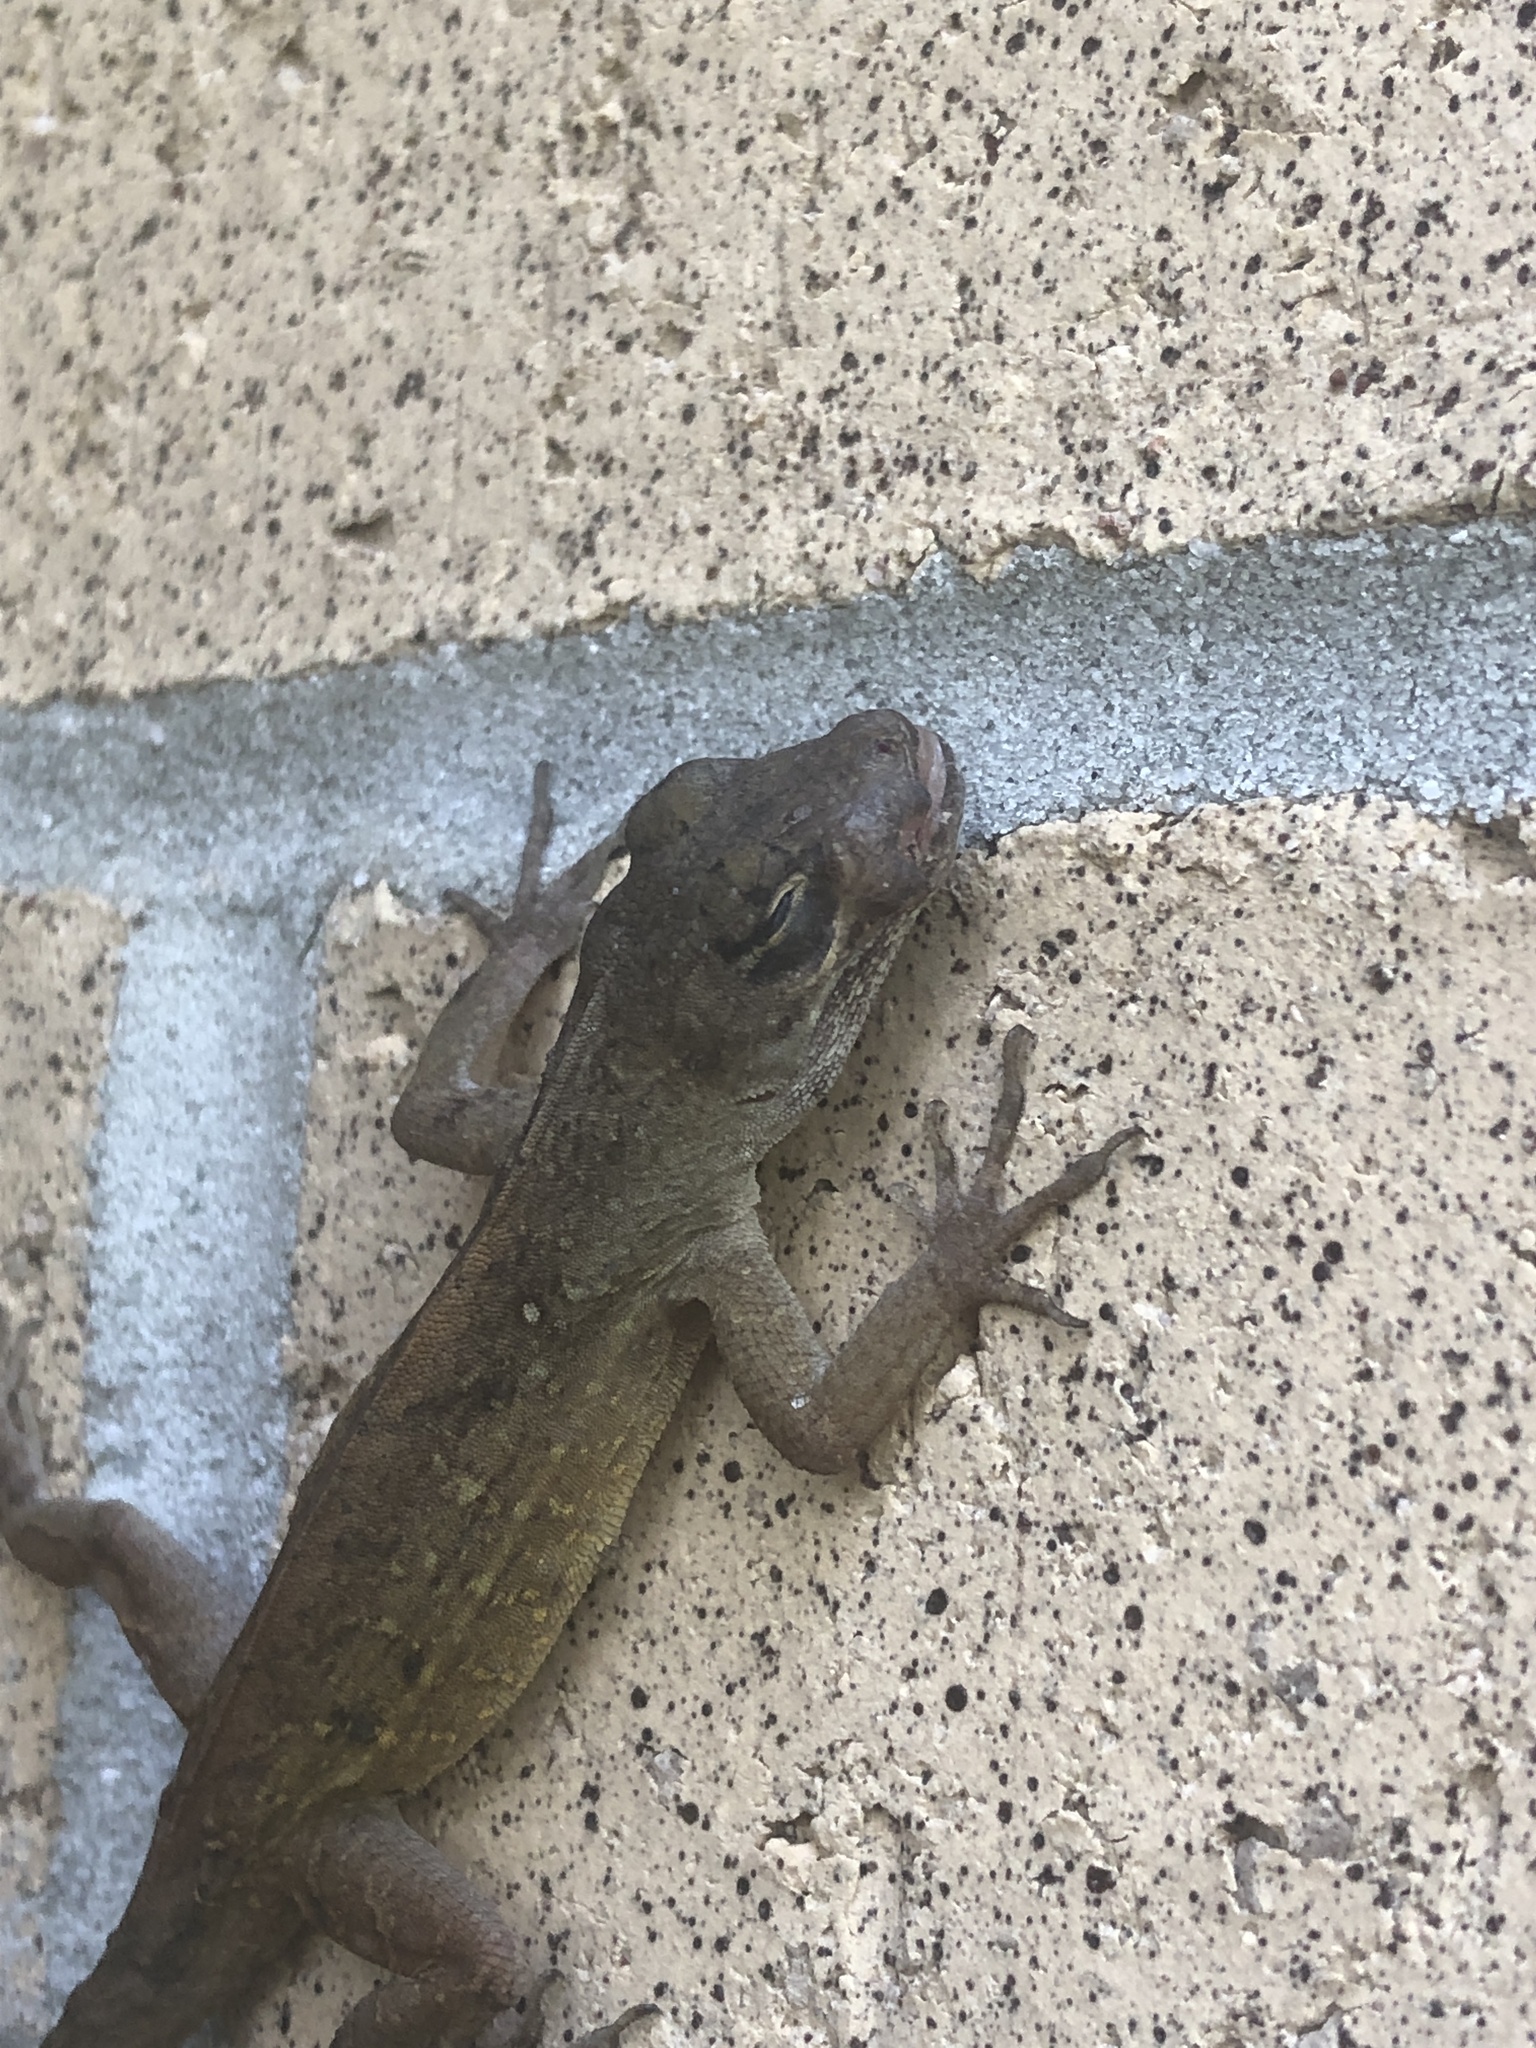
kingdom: Animalia
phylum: Chordata
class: Squamata
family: Dactyloidae
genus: Anolis
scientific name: Anolis sagrei
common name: Brown anole
